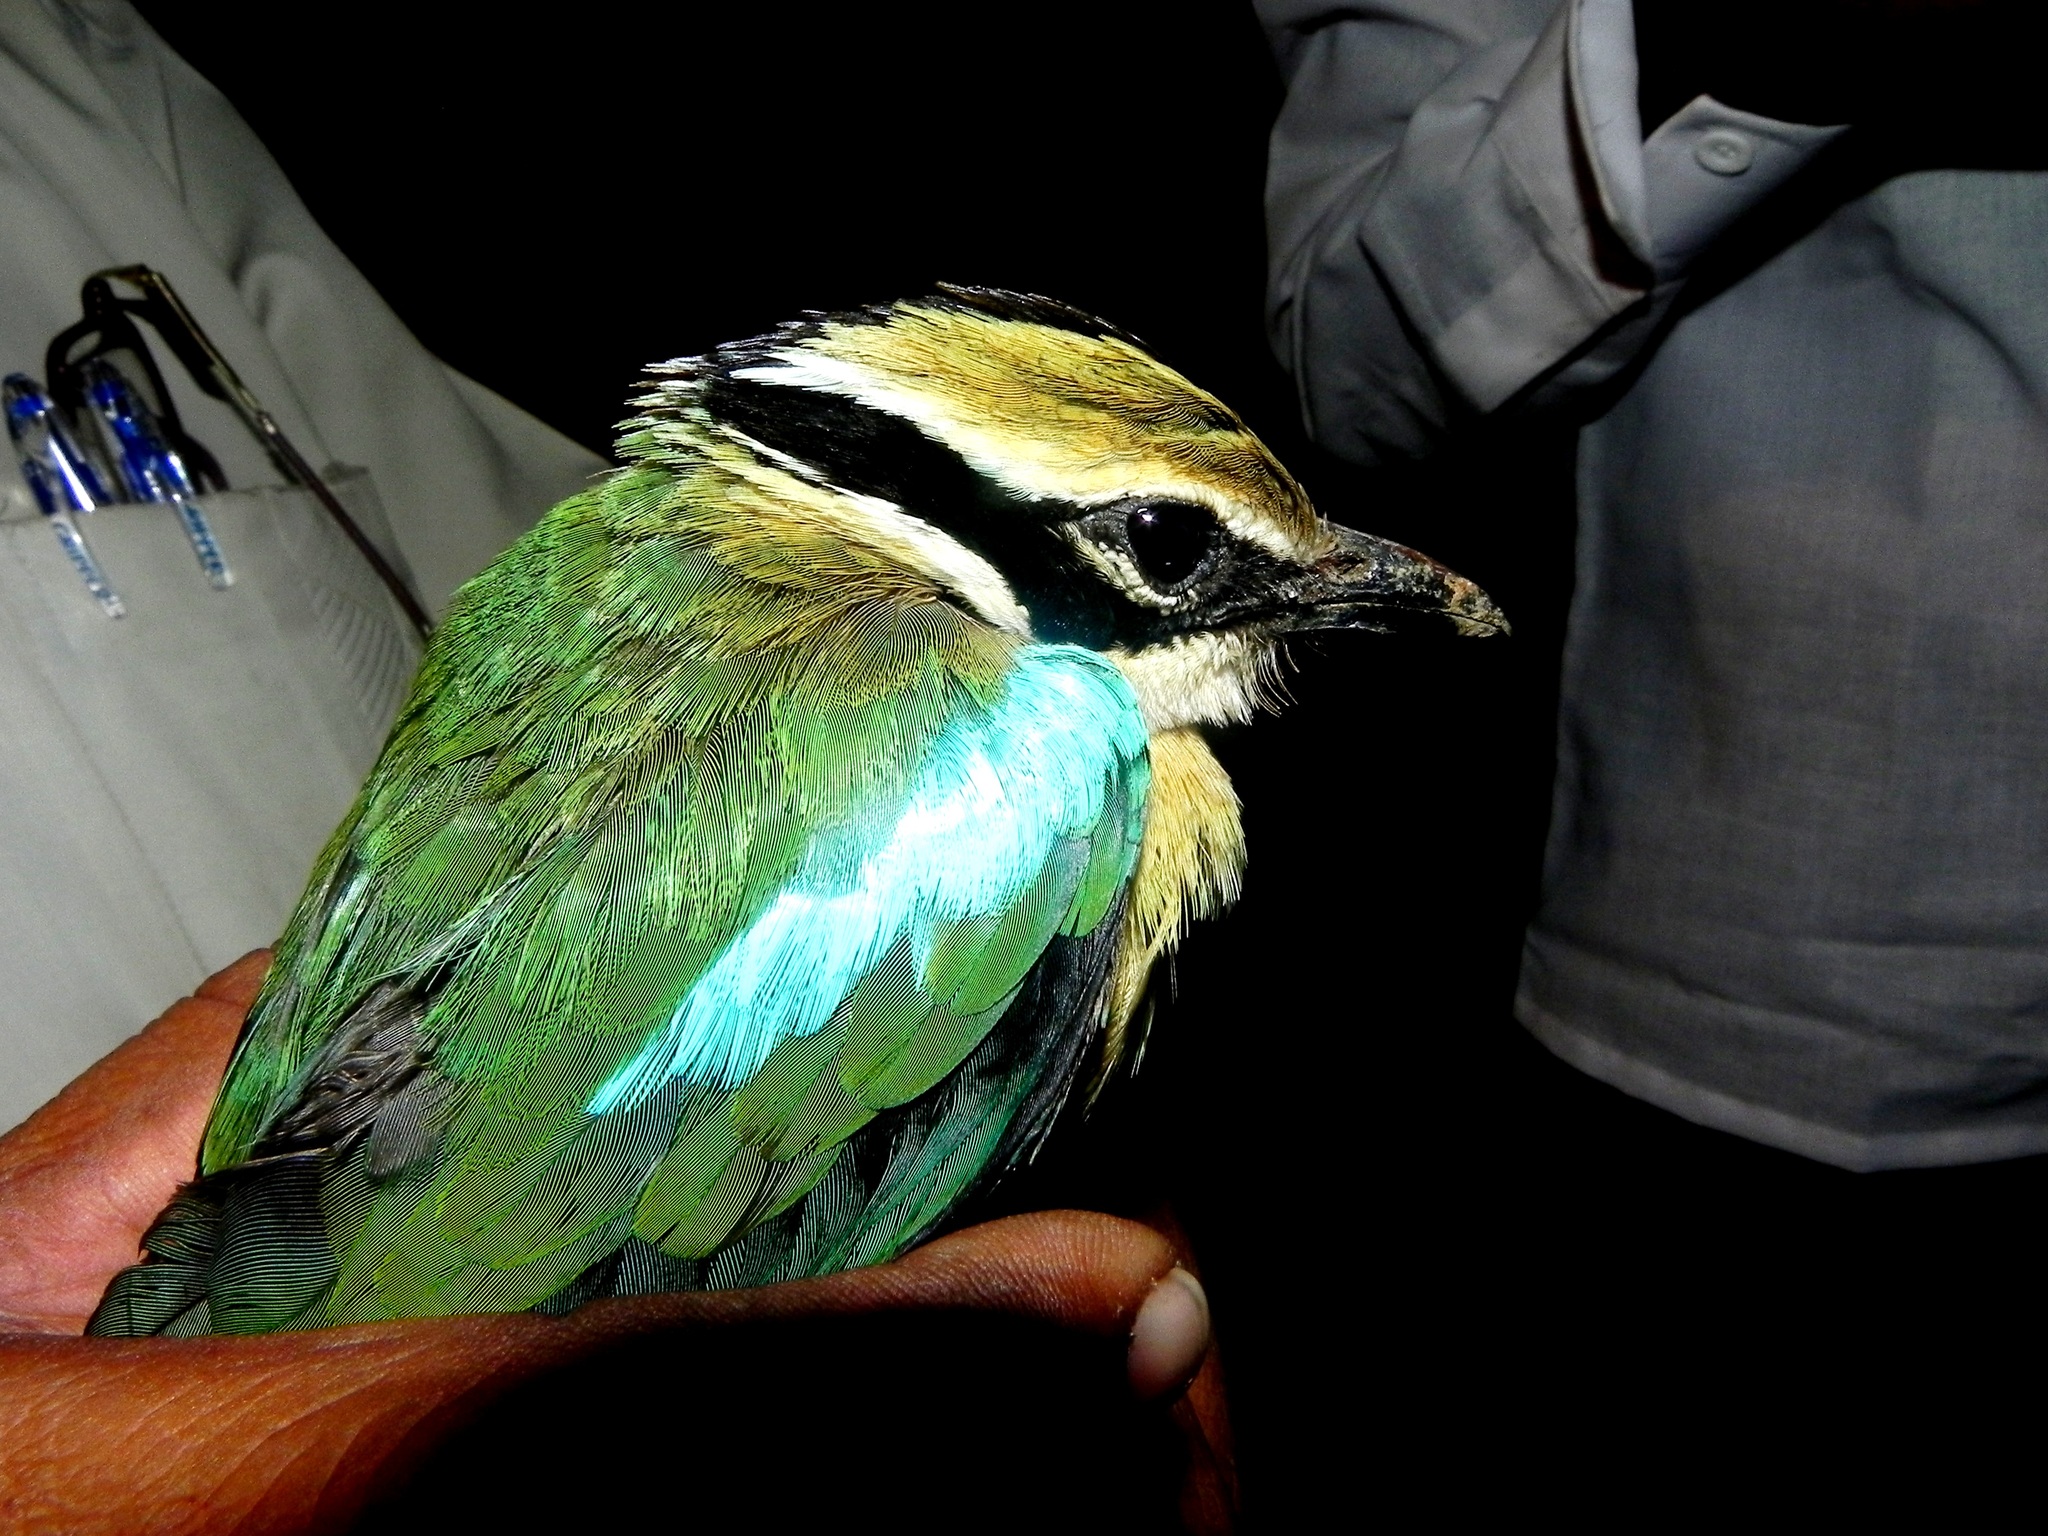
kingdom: Animalia
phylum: Chordata
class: Aves
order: Passeriformes
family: Pittidae
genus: Pitta
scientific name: Pitta brachyura
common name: Indian pitta
